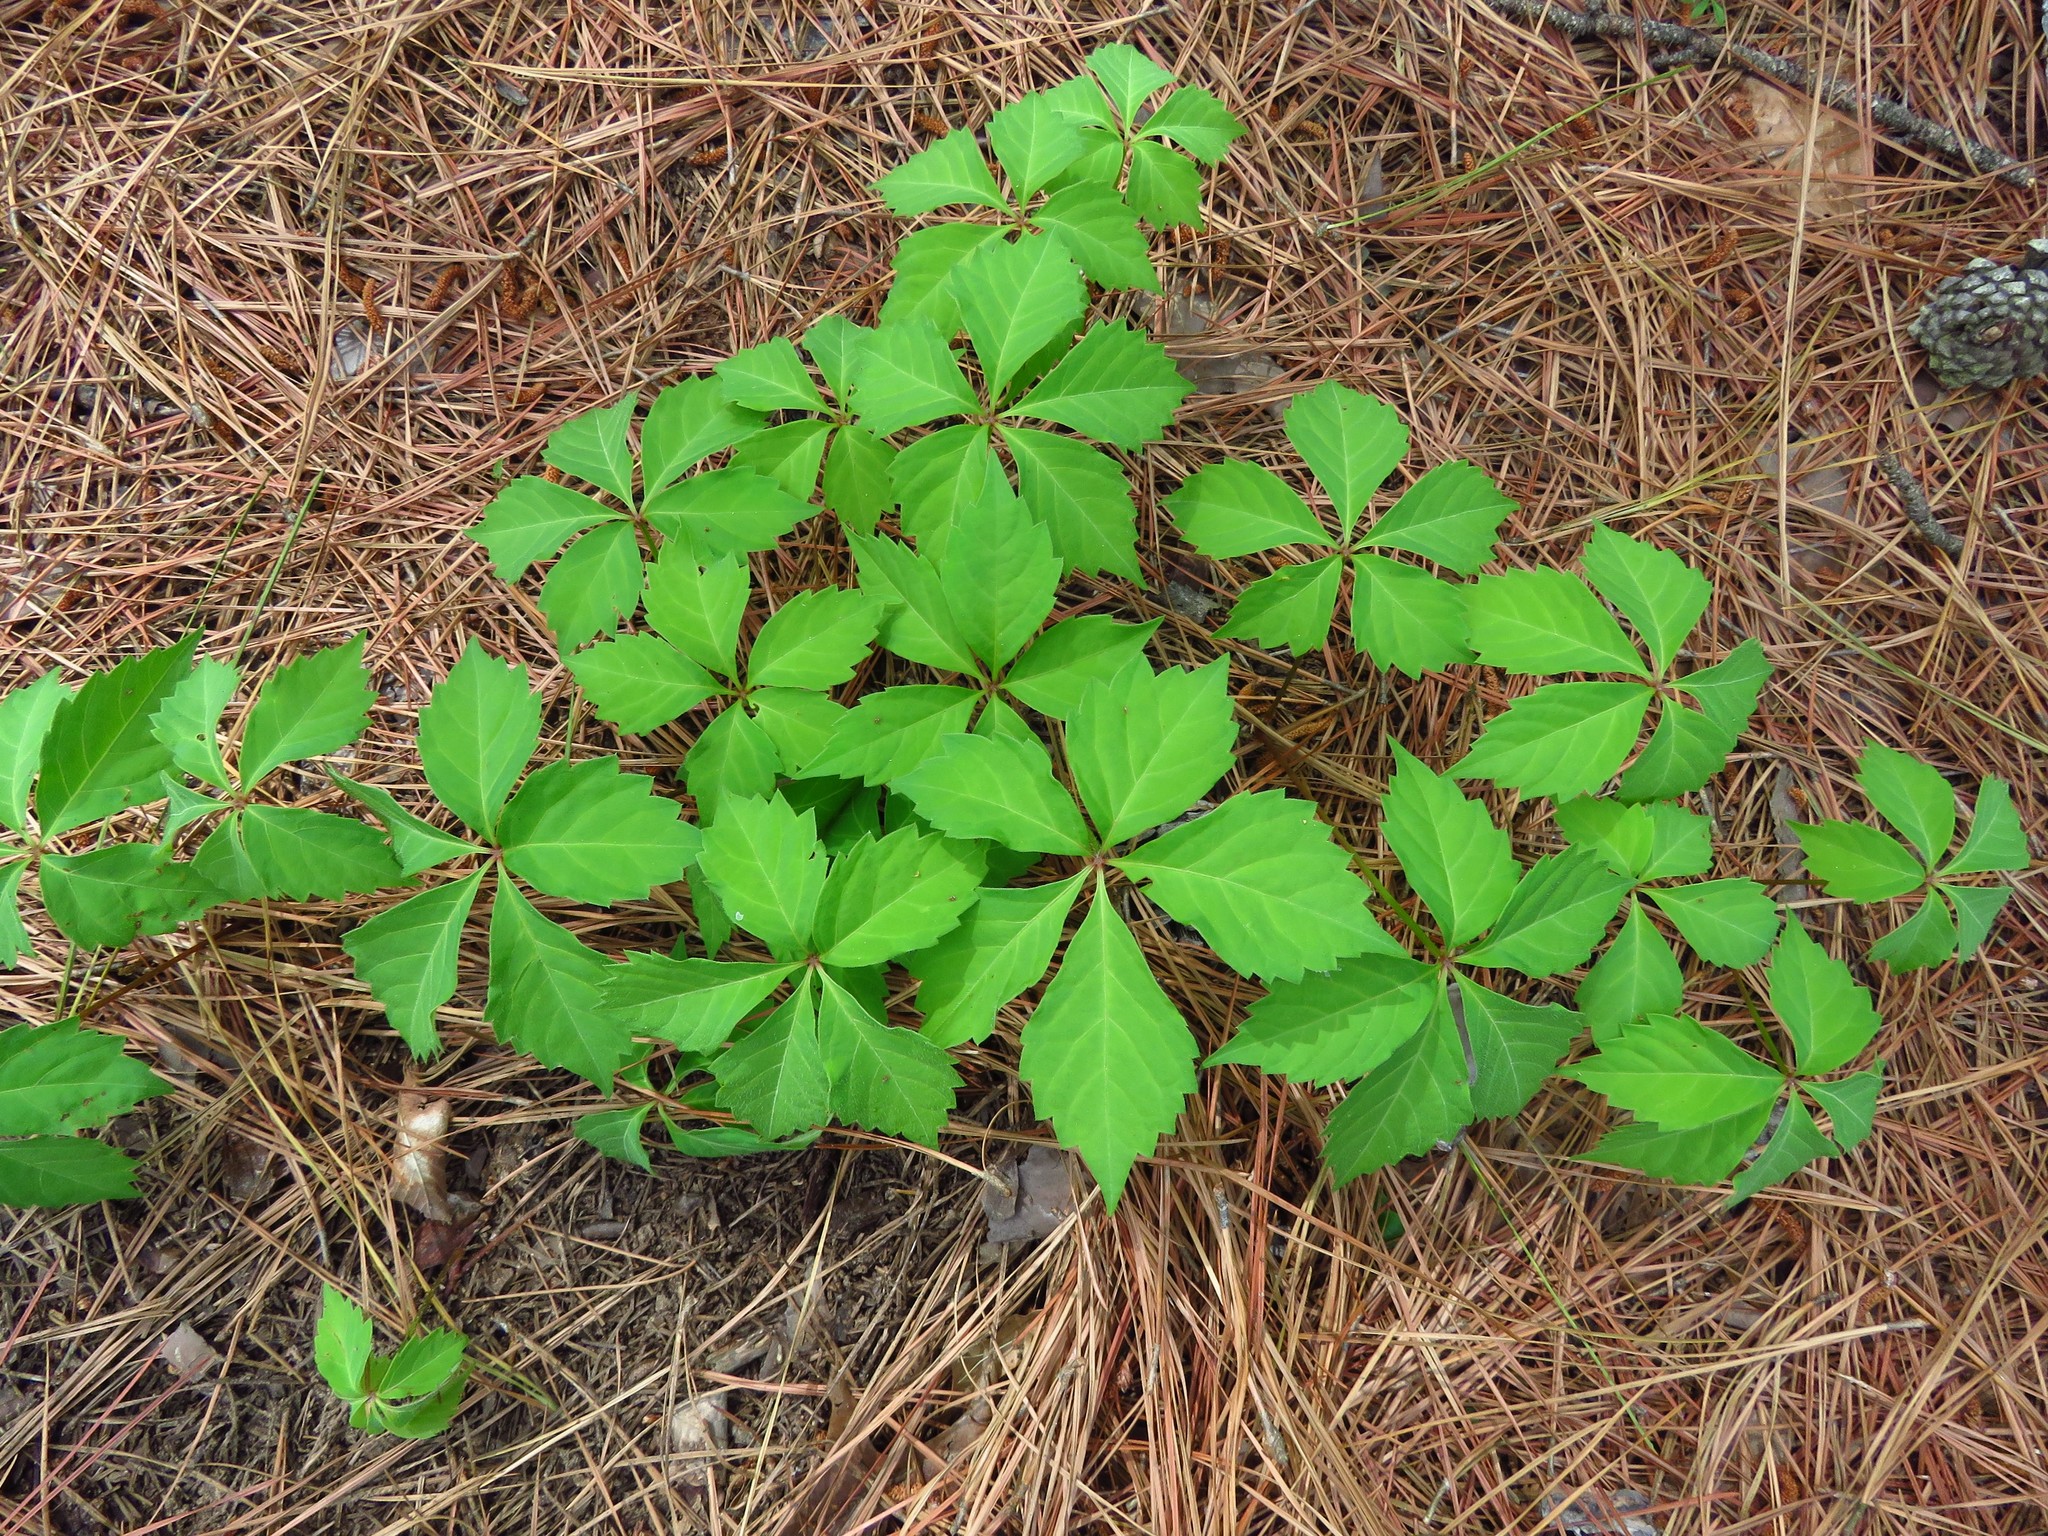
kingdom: Plantae
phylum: Tracheophyta
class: Magnoliopsida
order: Vitales
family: Vitaceae
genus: Parthenocissus
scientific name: Parthenocissus quinquefolia
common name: Virginia-creeper
